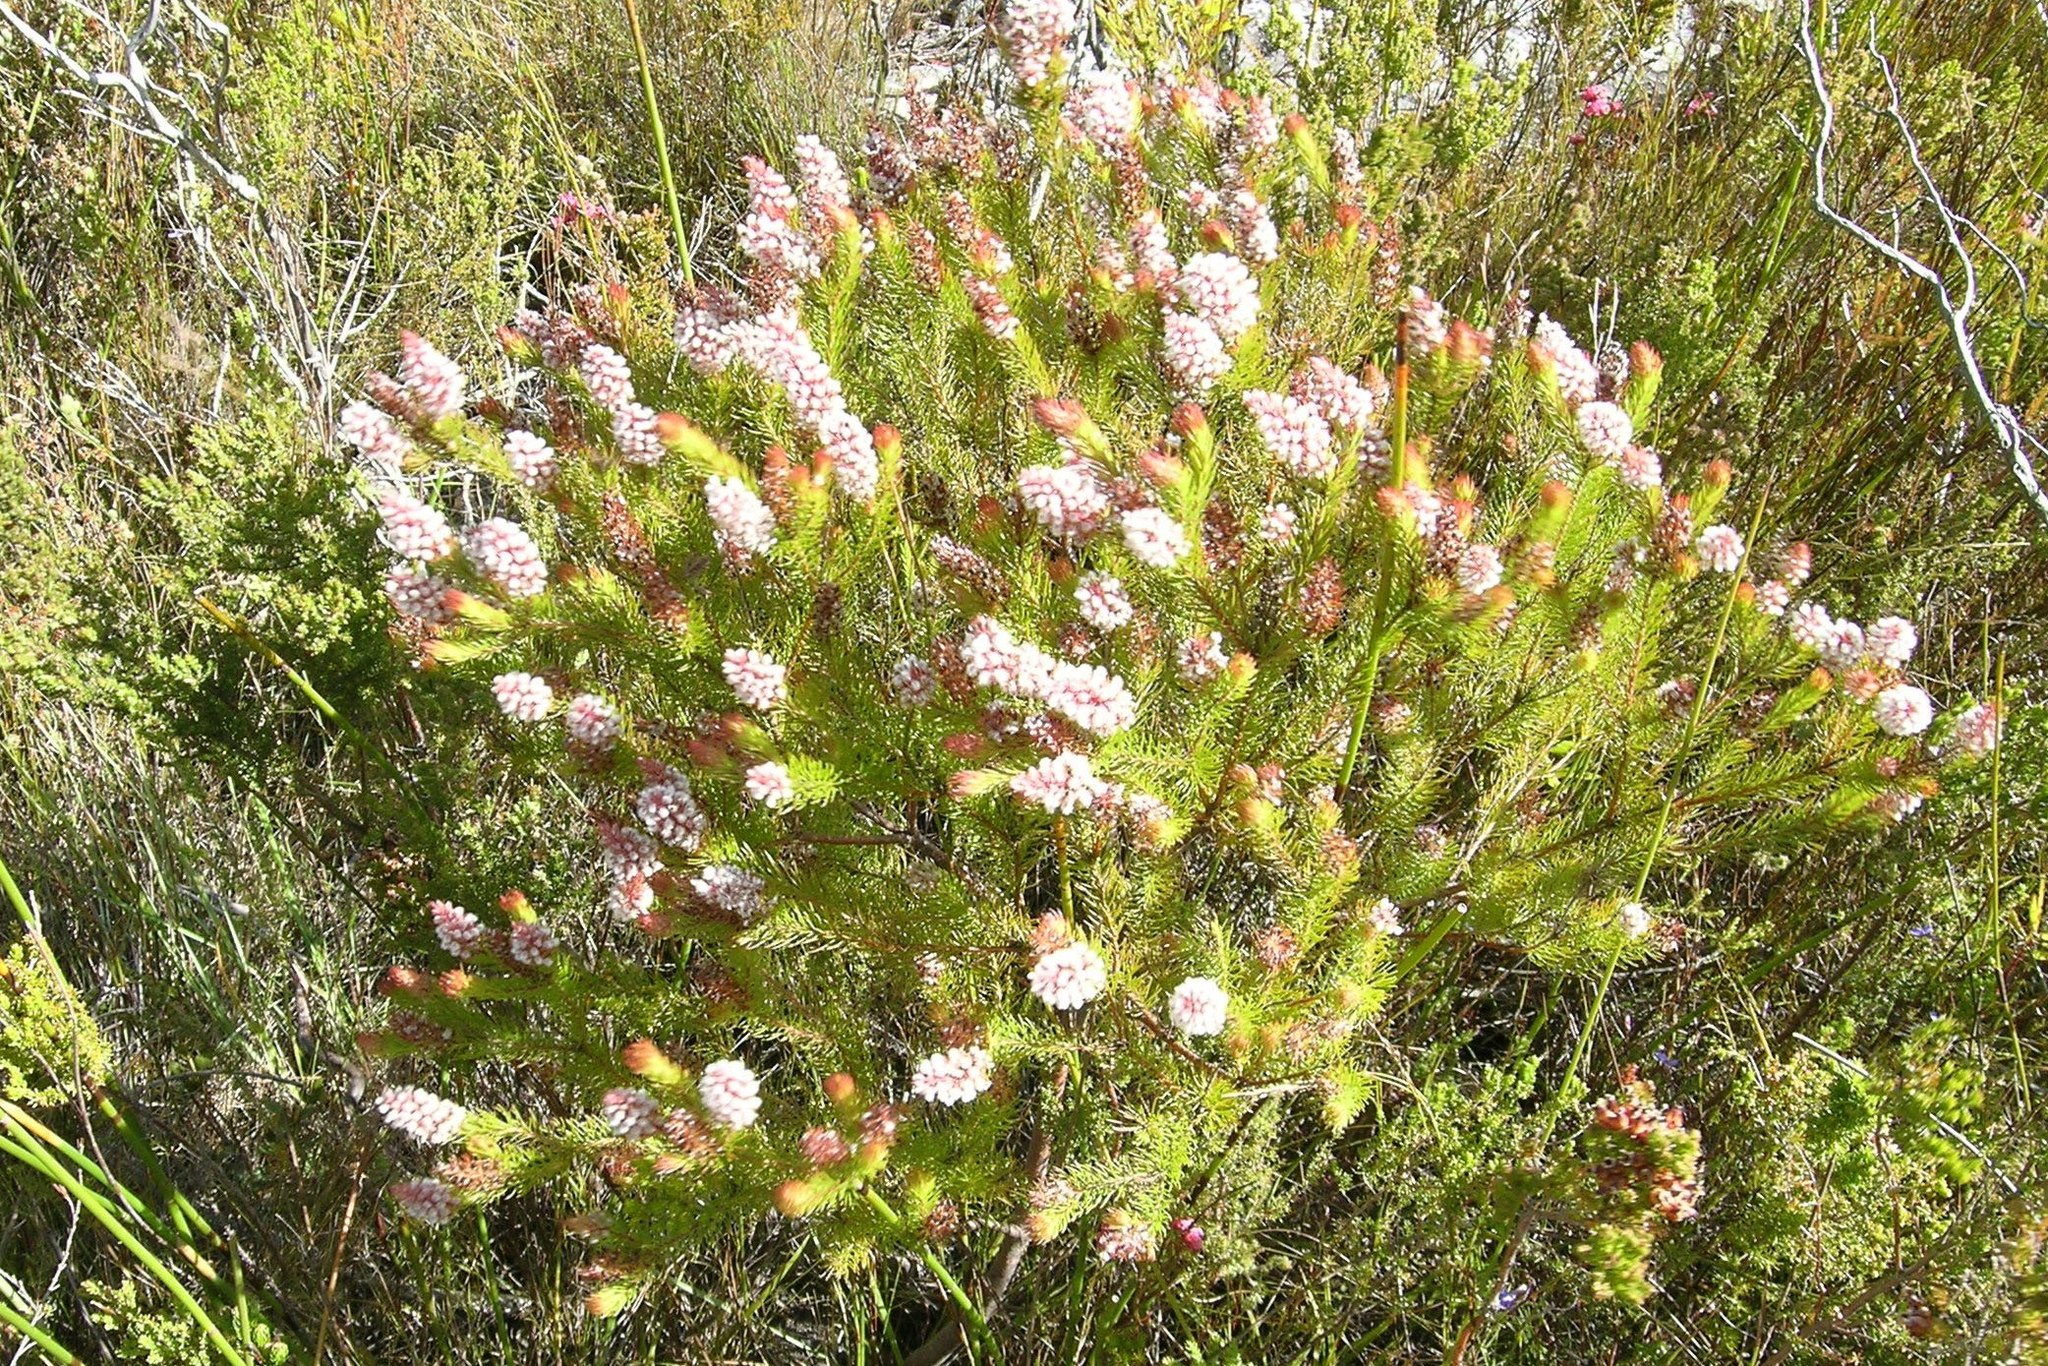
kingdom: Plantae
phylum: Tracheophyta
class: Magnoliopsida
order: Proteales
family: Proteaceae
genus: Spatalla
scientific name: Spatalla parilis
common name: Spike spoon
